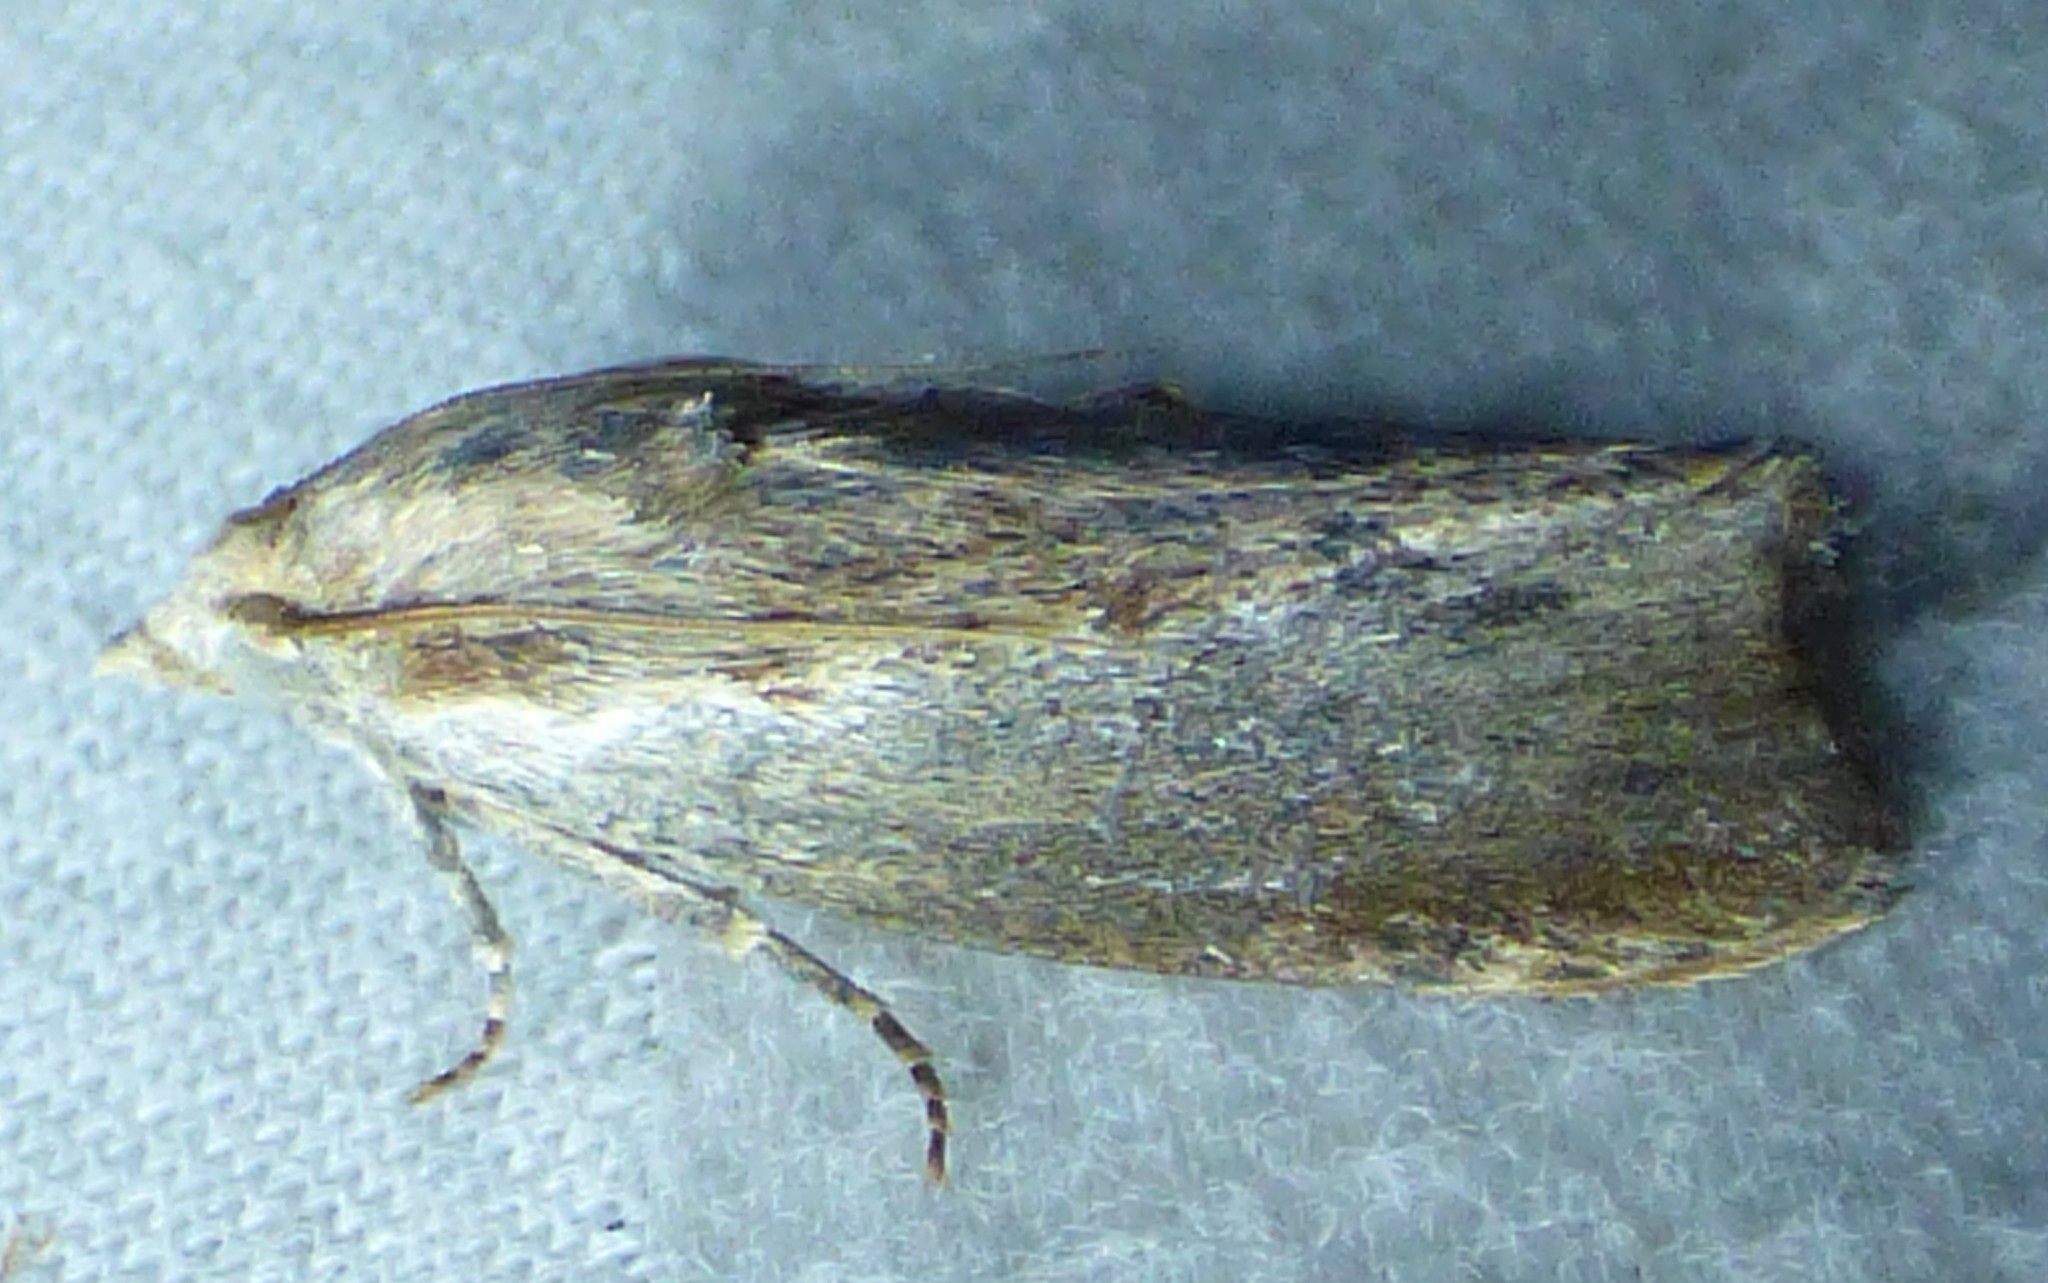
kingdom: Animalia
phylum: Arthropoda
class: Insecta
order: Lepidoptera
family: Pyralidae
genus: Galleria
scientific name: Galleria mellonella
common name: Greater wax moth
